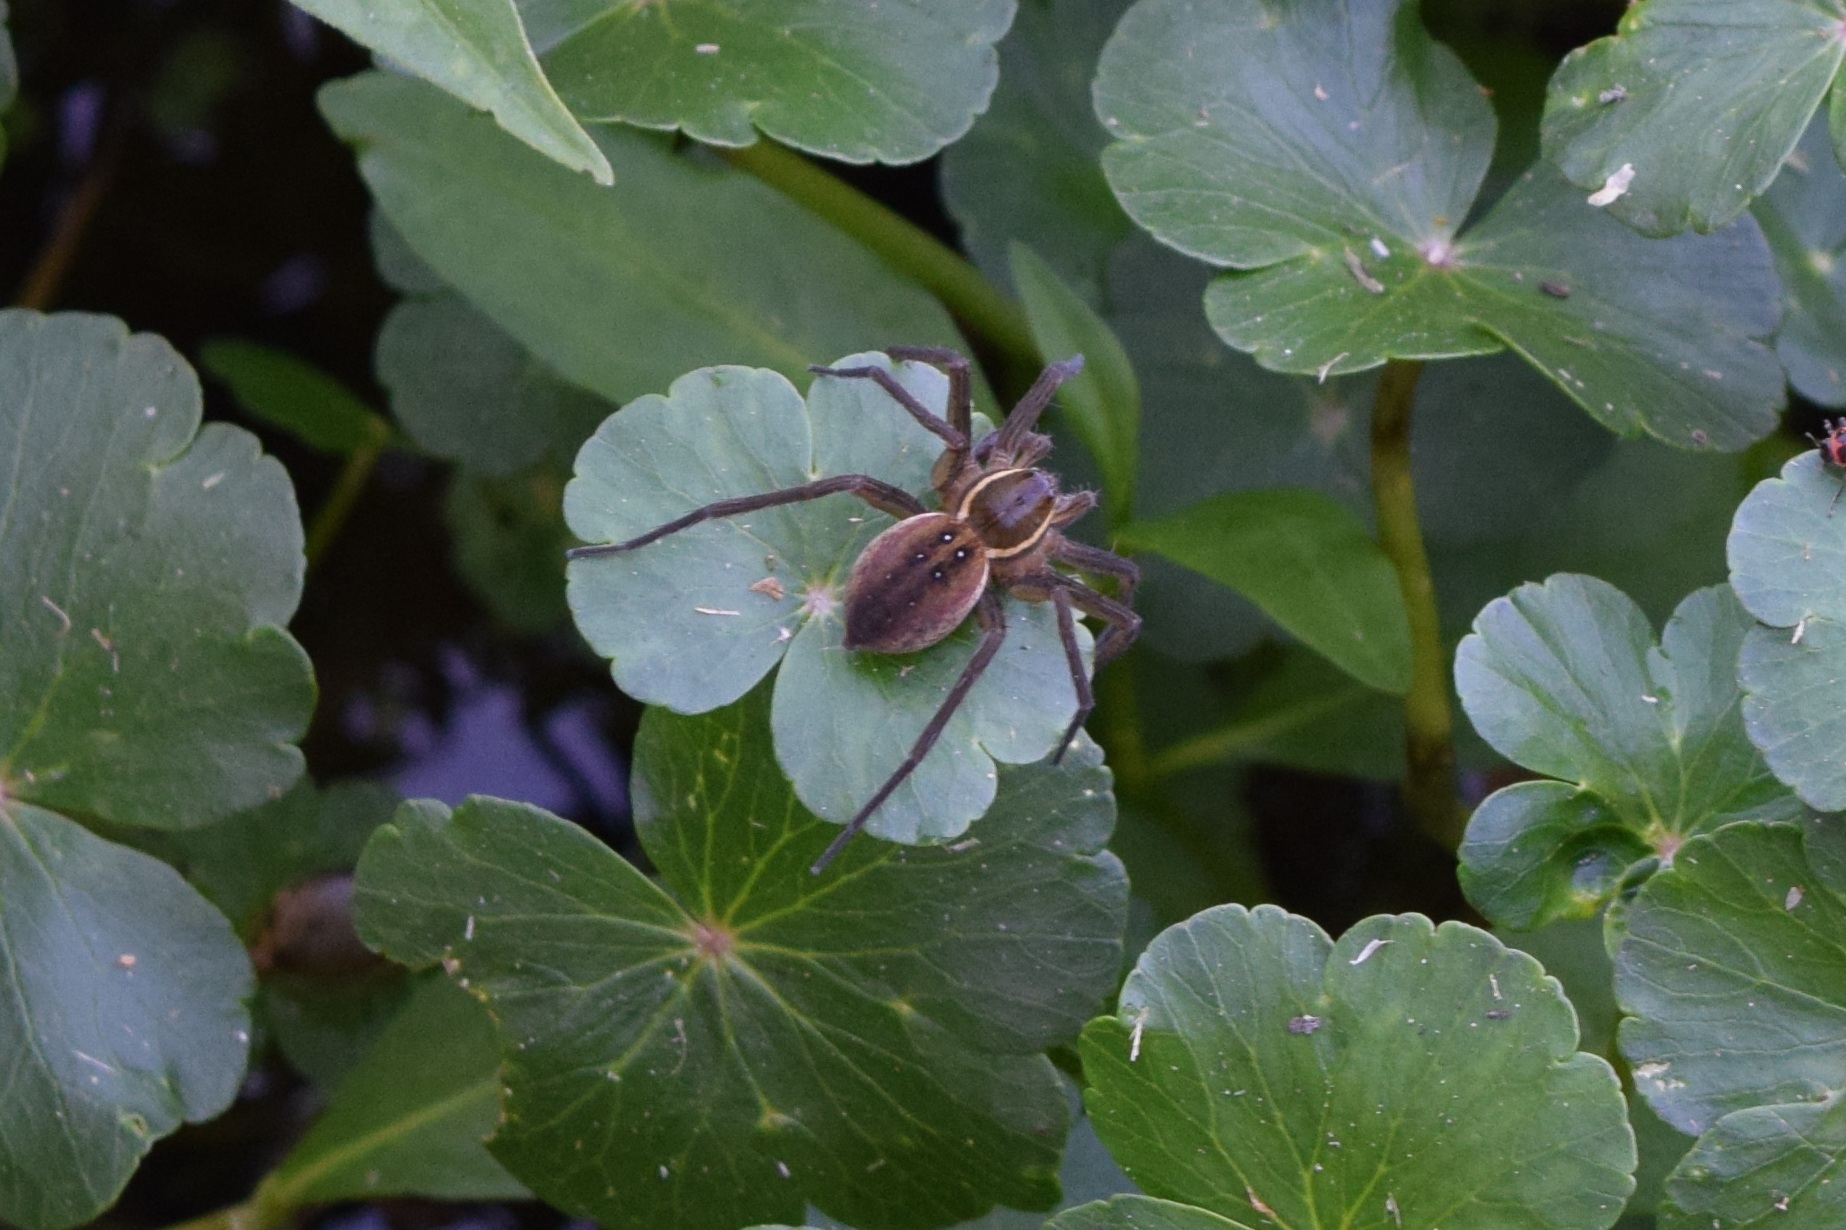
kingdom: Animalia
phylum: Arthropoda
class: Arachnida
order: Araneae
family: Pisauridae
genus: Dolomedes
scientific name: Dolomedes triton
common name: Six-spotted fishing spider
